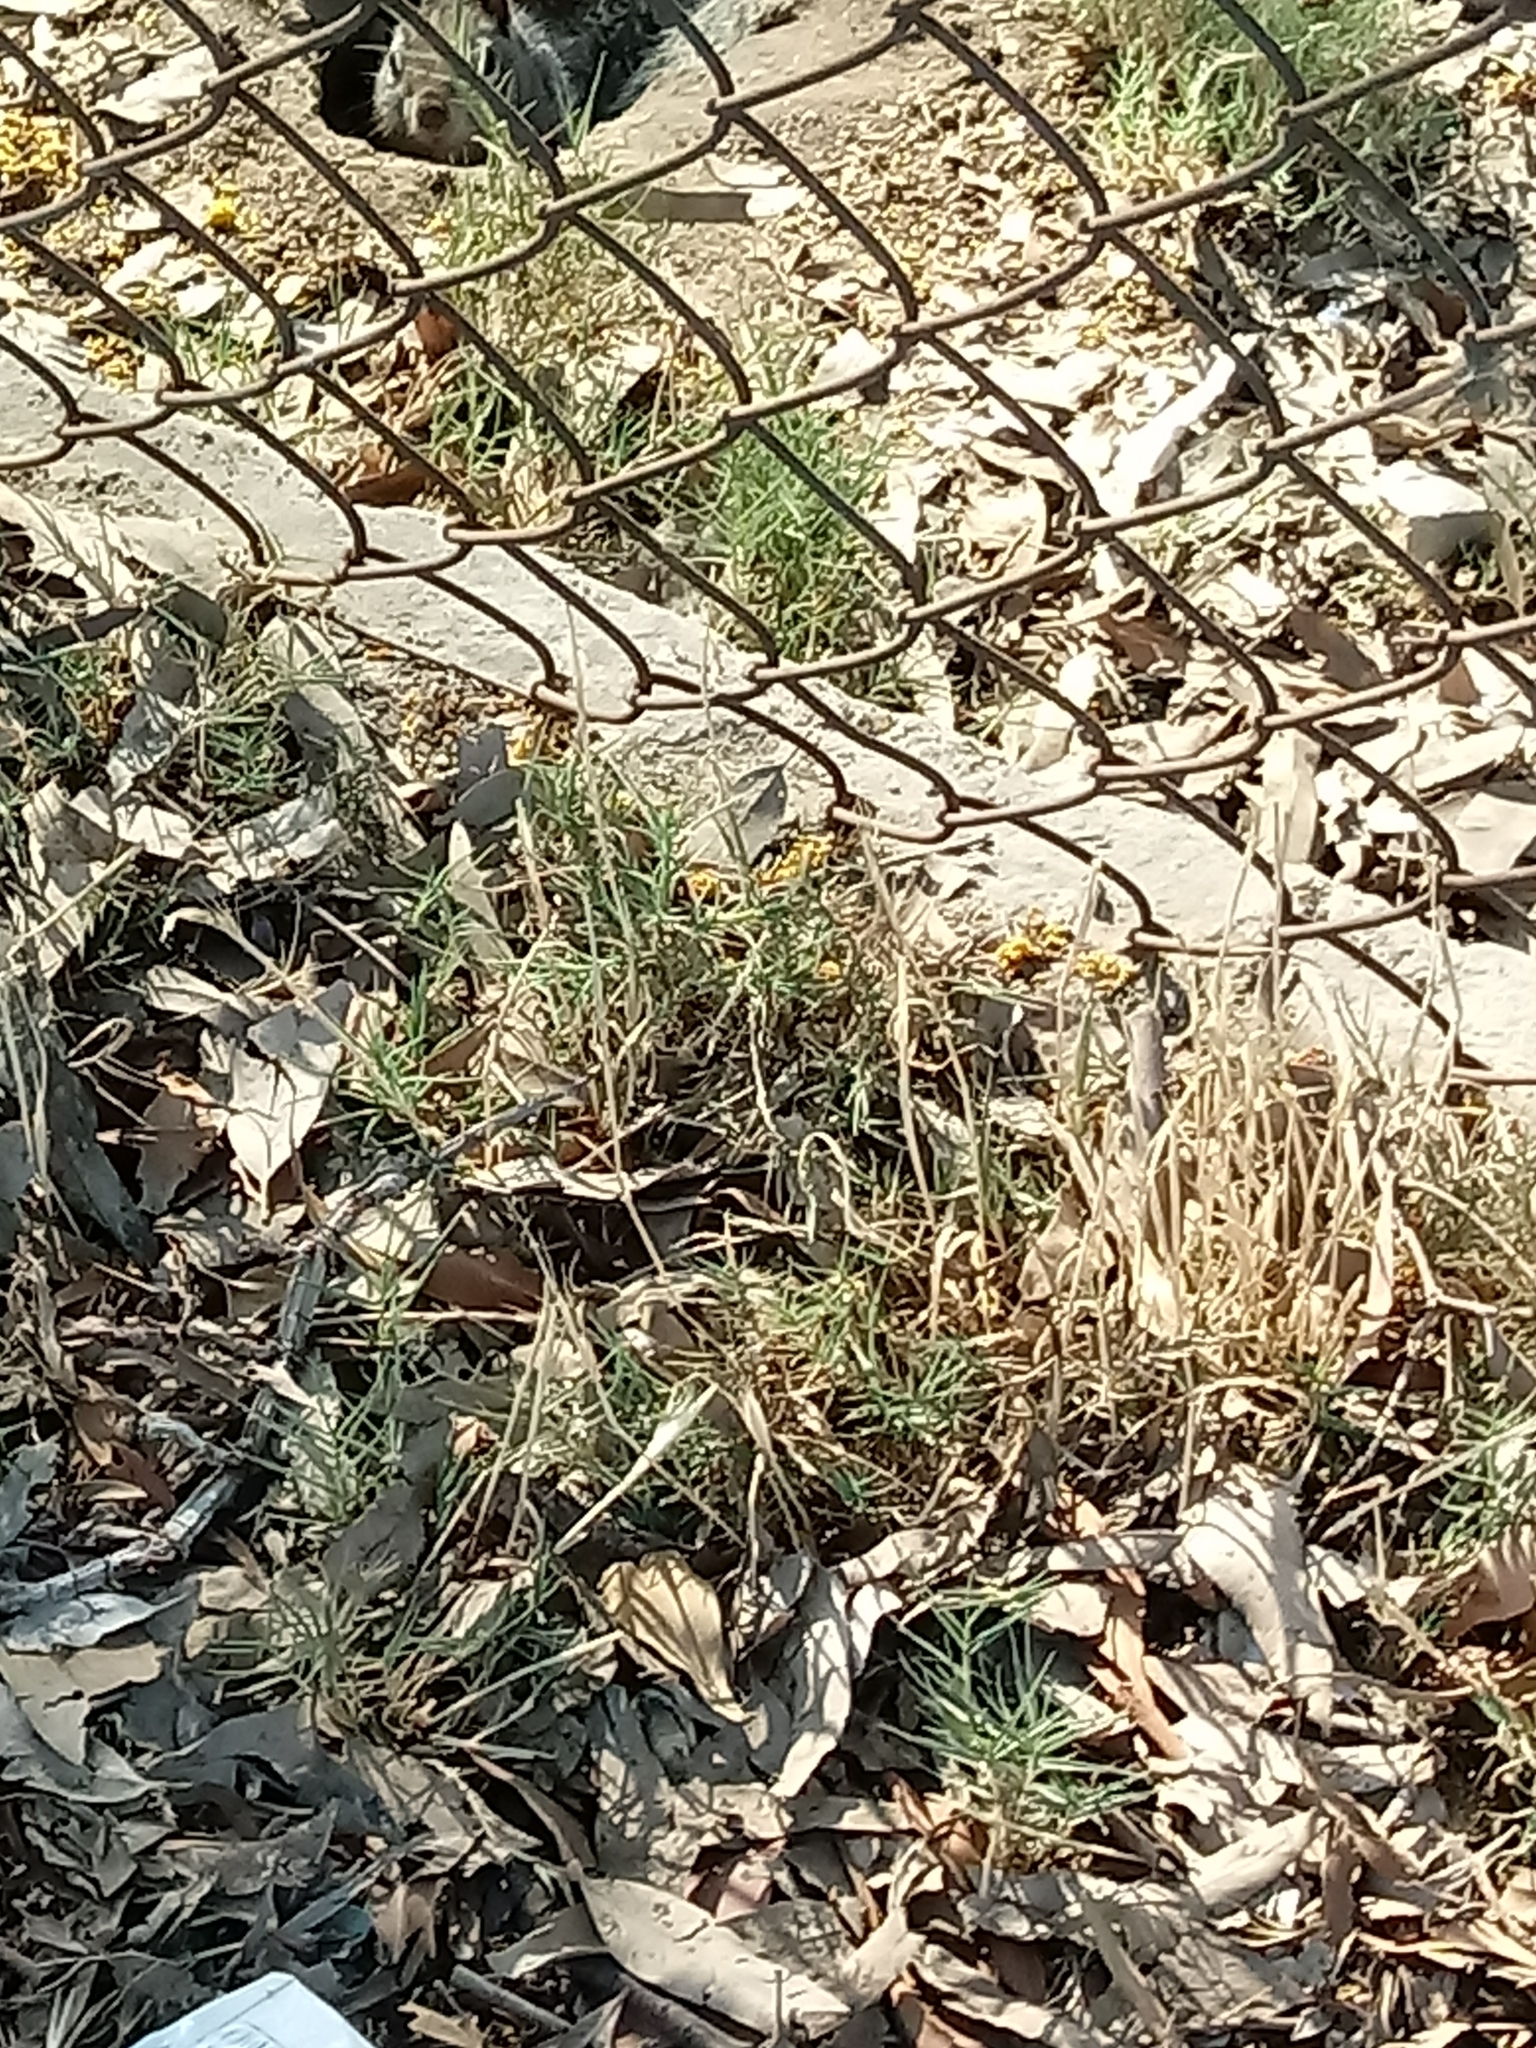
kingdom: Animalia
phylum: Chordata
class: Mammalia
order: Rodentia
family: Sciuridae
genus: Otospermophilus
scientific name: Otospermophilus beecheyi
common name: California ground squirrel
